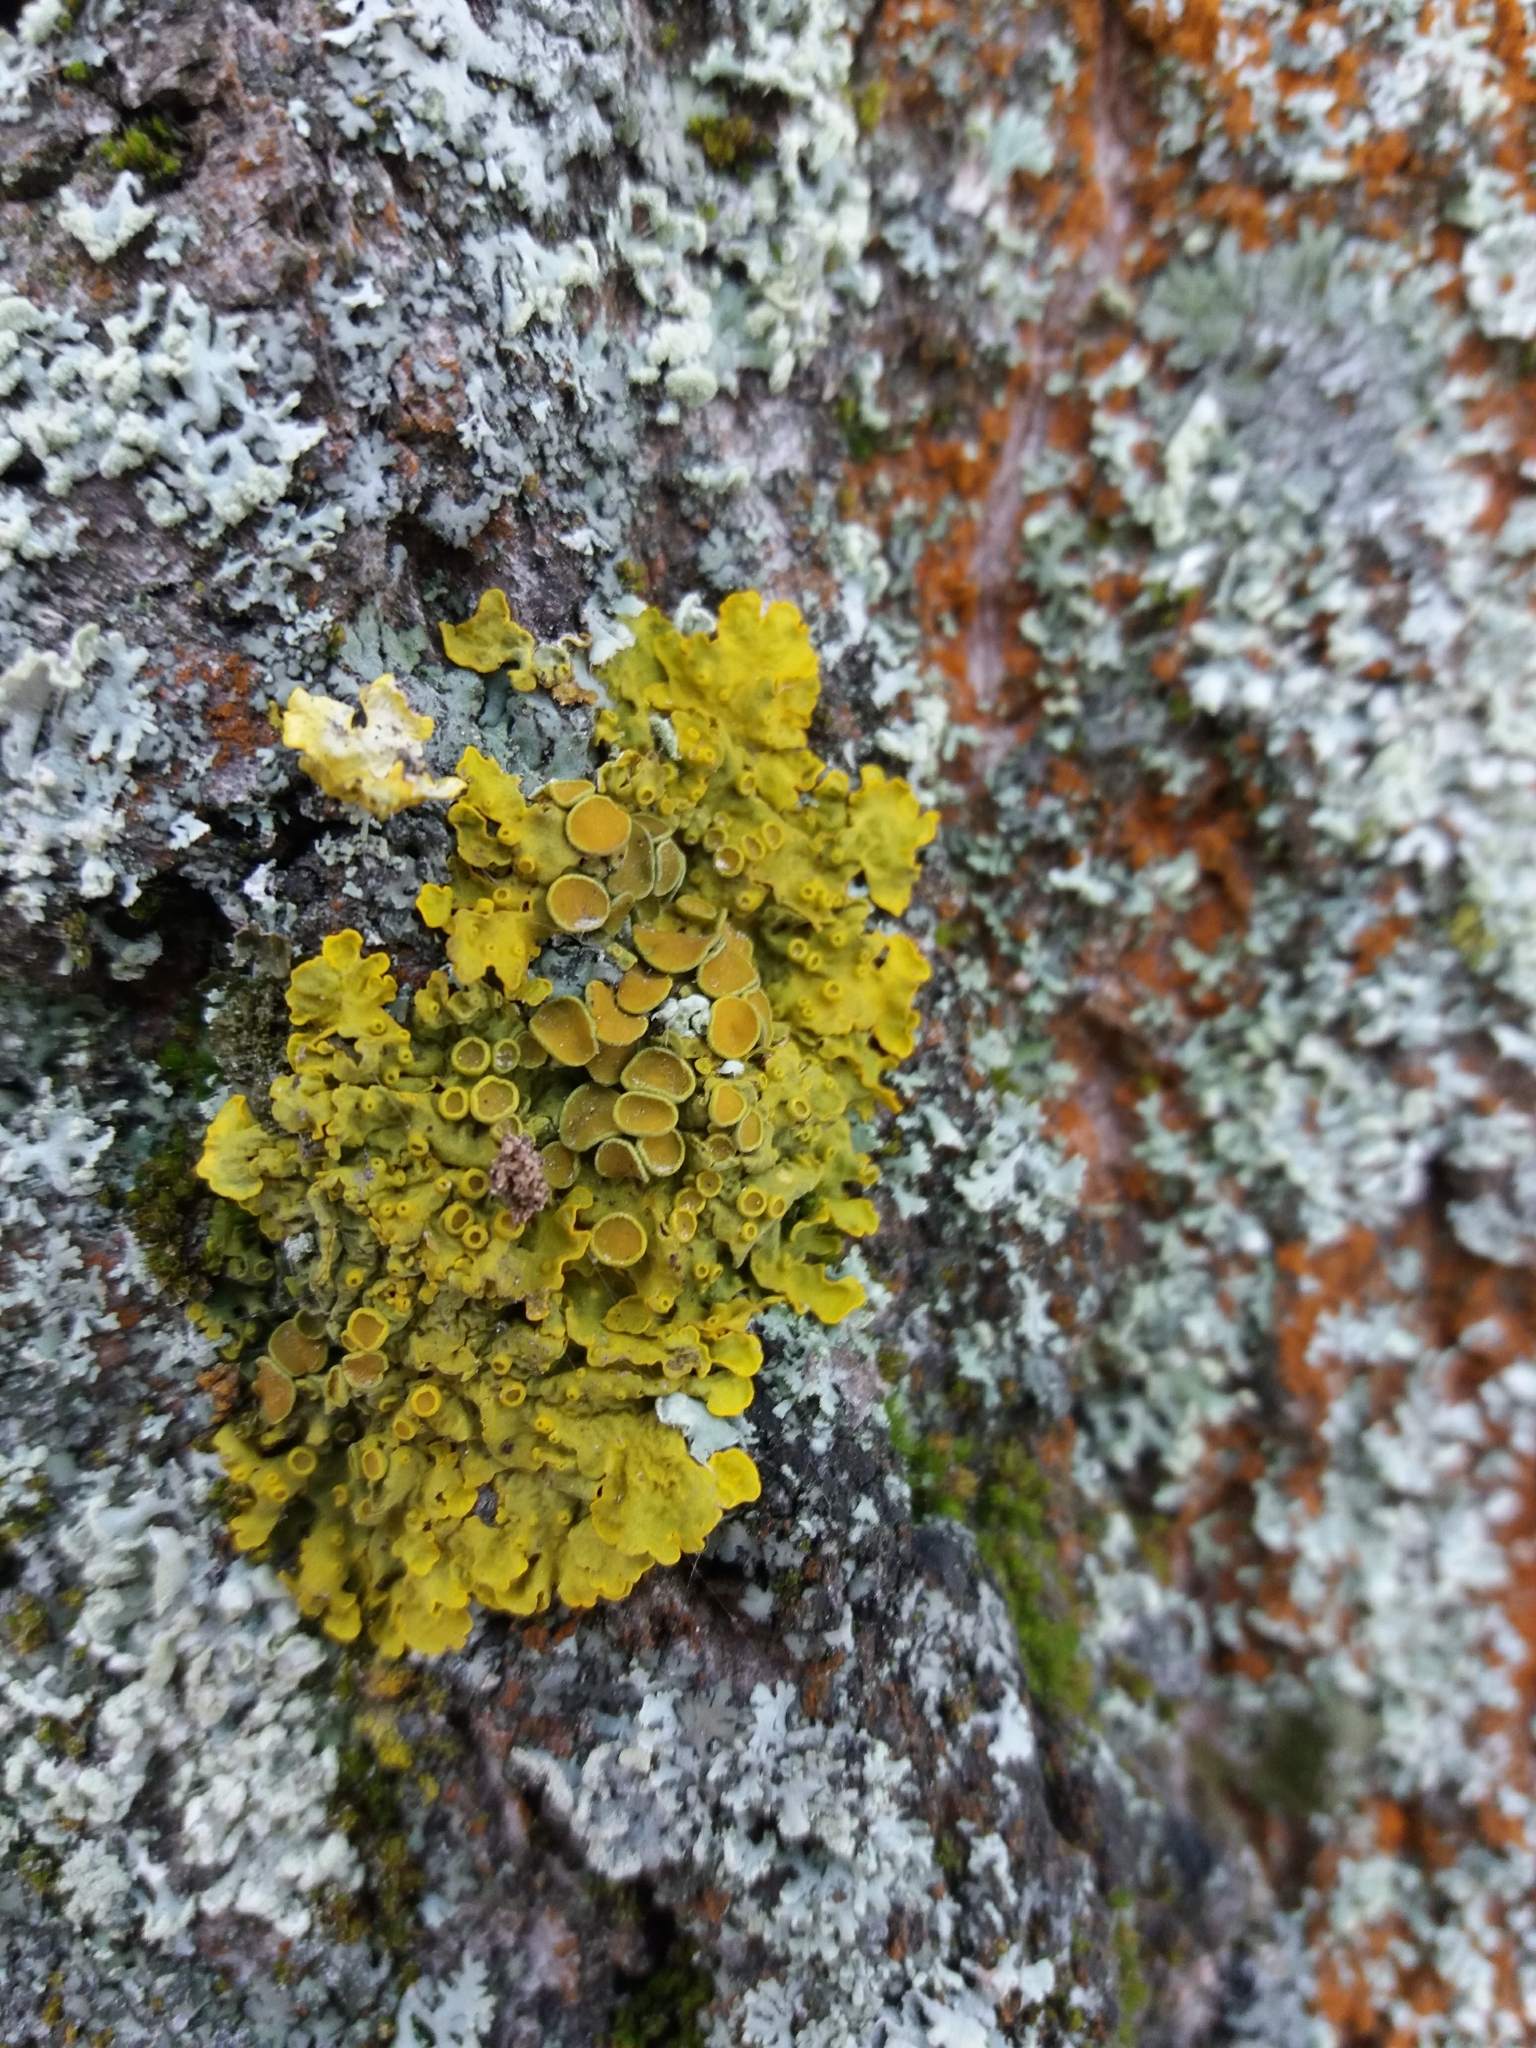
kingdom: Fungi
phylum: Ascomycota
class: Lecanoromycetes
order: Teloschistales
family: Teloschistaceae
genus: Xanthoria
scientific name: Xanthoria parietina
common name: Common orange lichen
